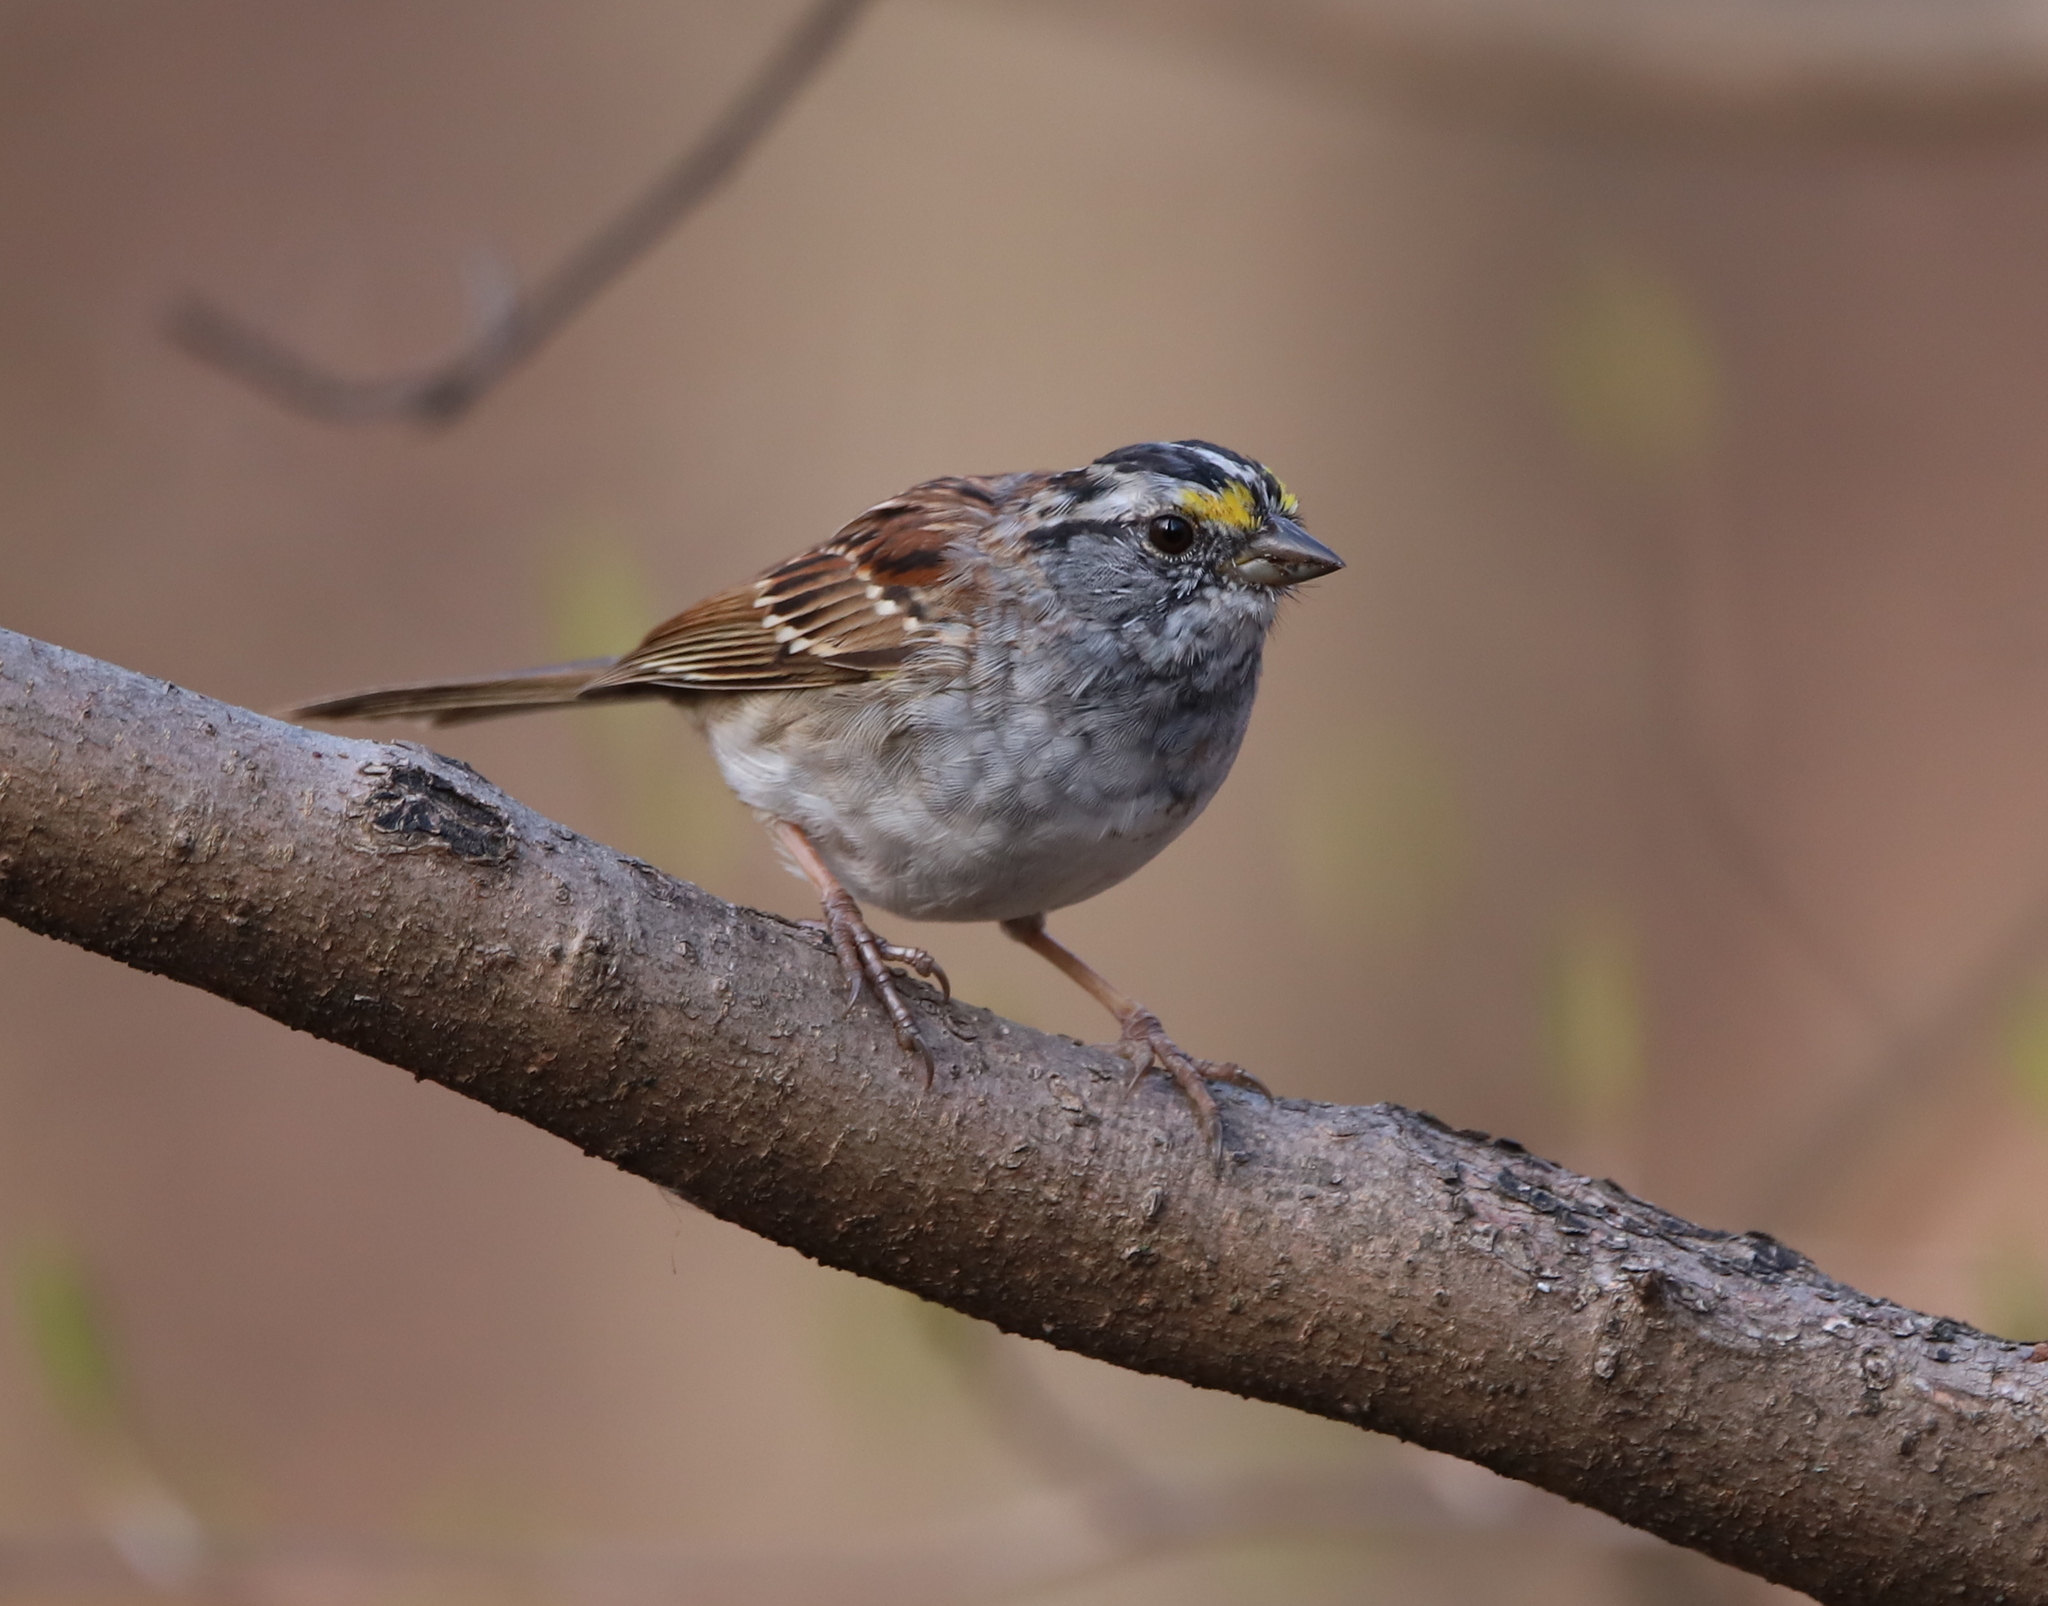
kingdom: Animalia
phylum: Chordata
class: Aves
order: Passeriformes
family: Passerellidae
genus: Zonotrichia
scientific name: Zonotrichia albicollis
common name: White-throated sparrow
